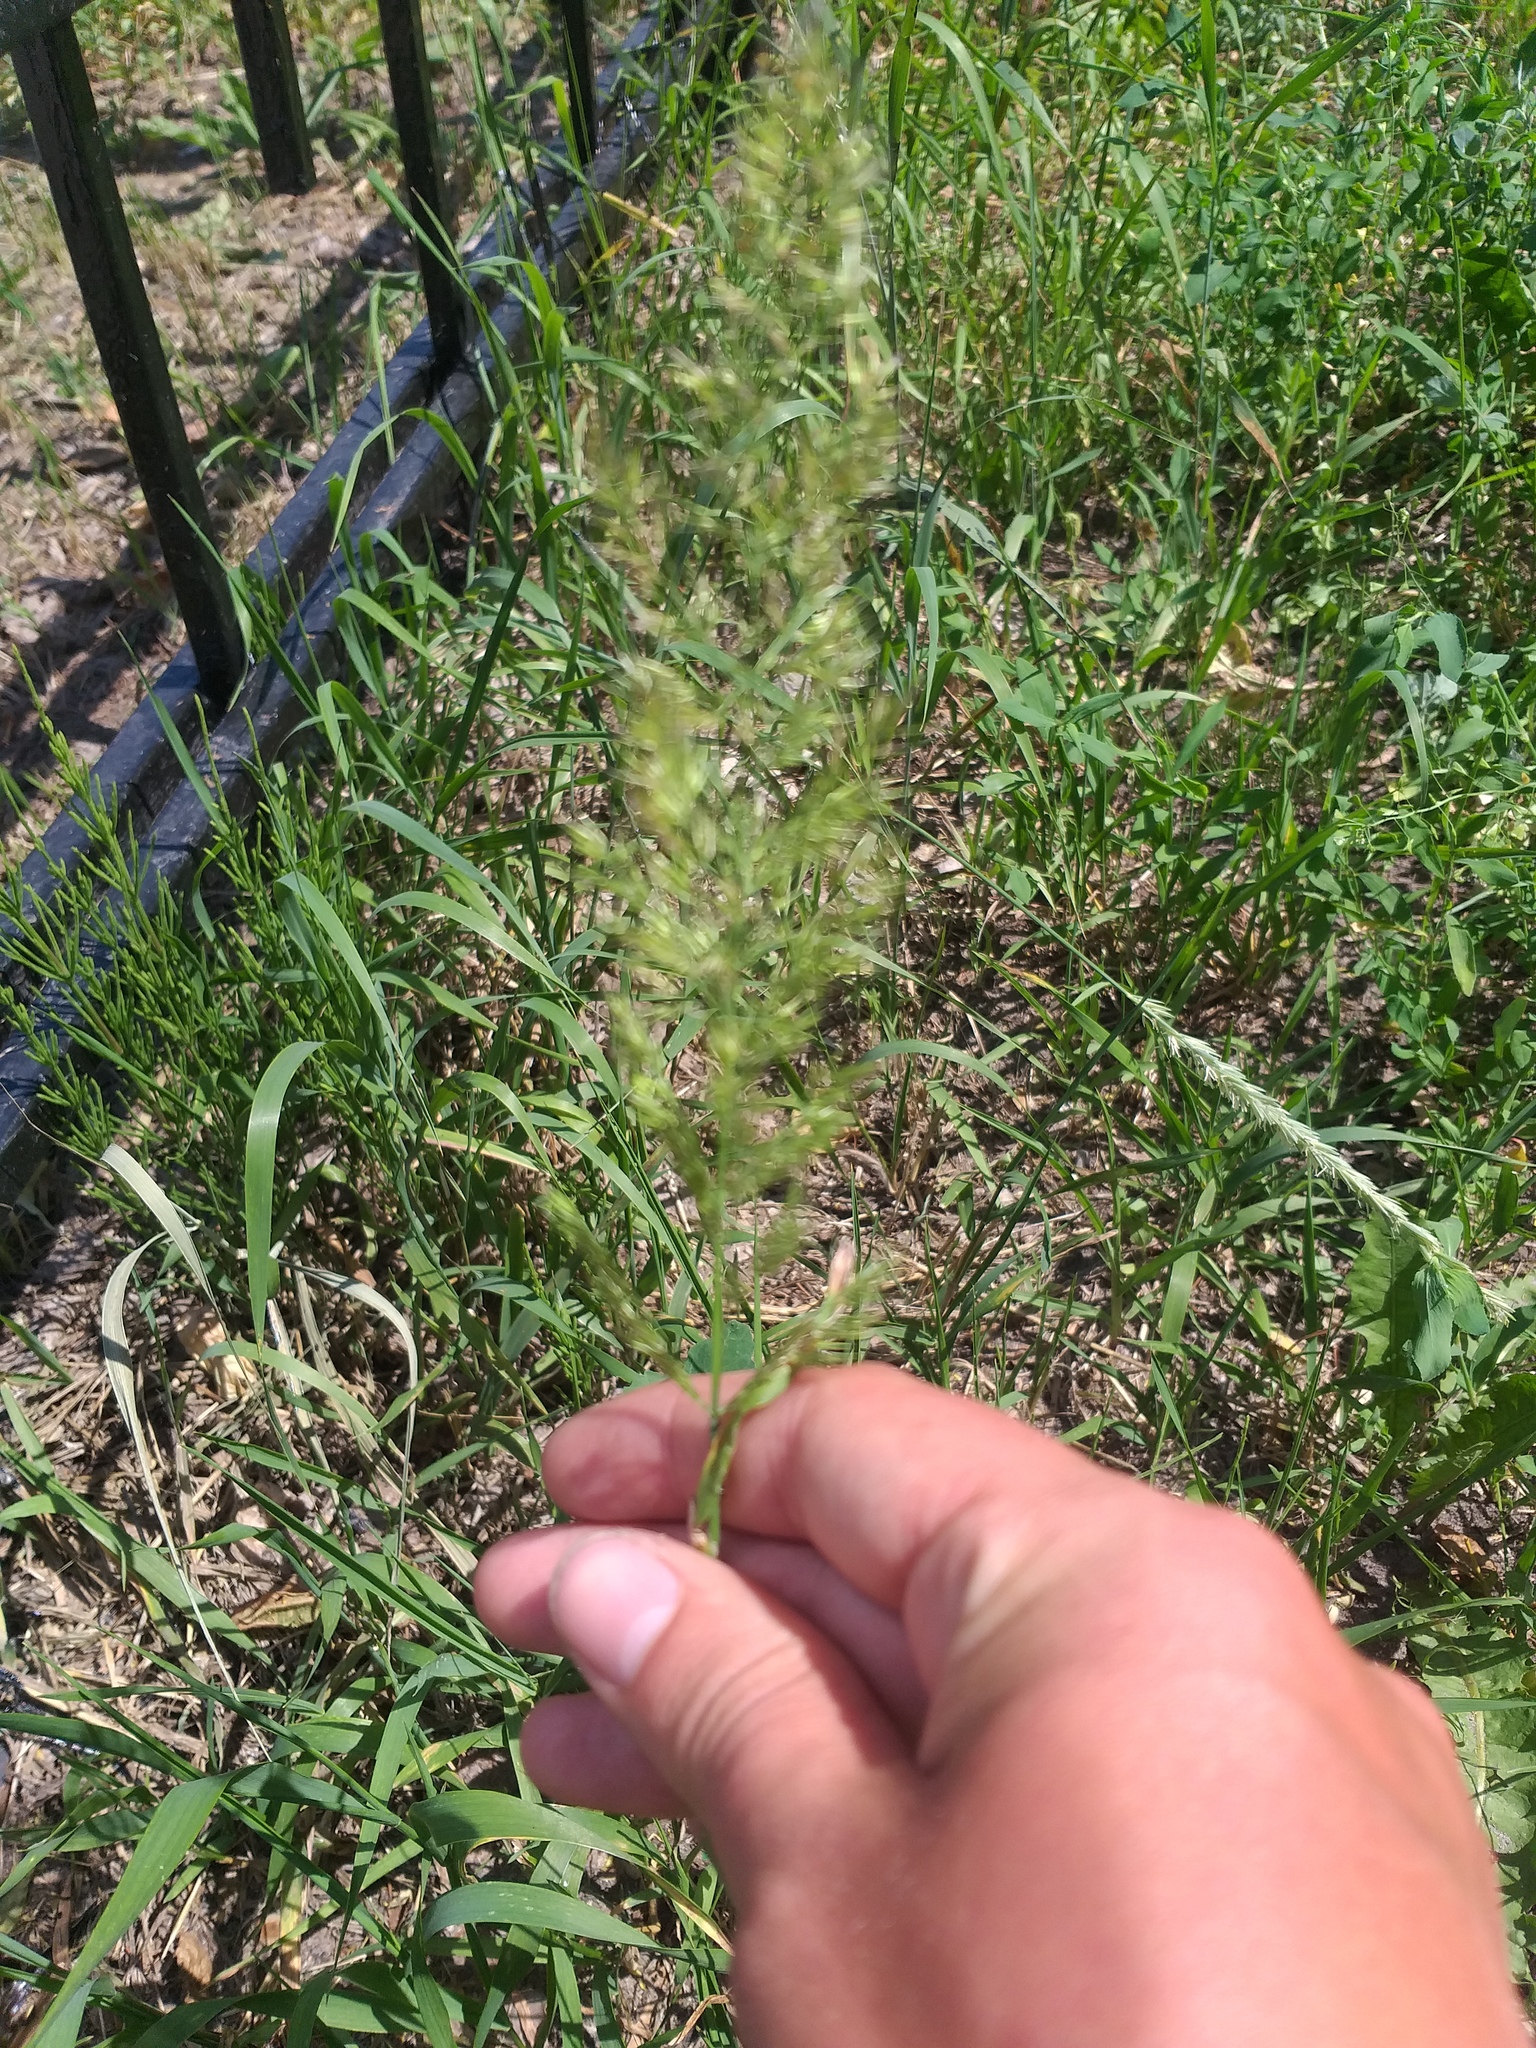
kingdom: Plantae
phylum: Tracheophyta
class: Liliopsida
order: Poales
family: Poaceae
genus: Calamagrostis
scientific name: Calamagrostis epigejos
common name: Wood small-reed
